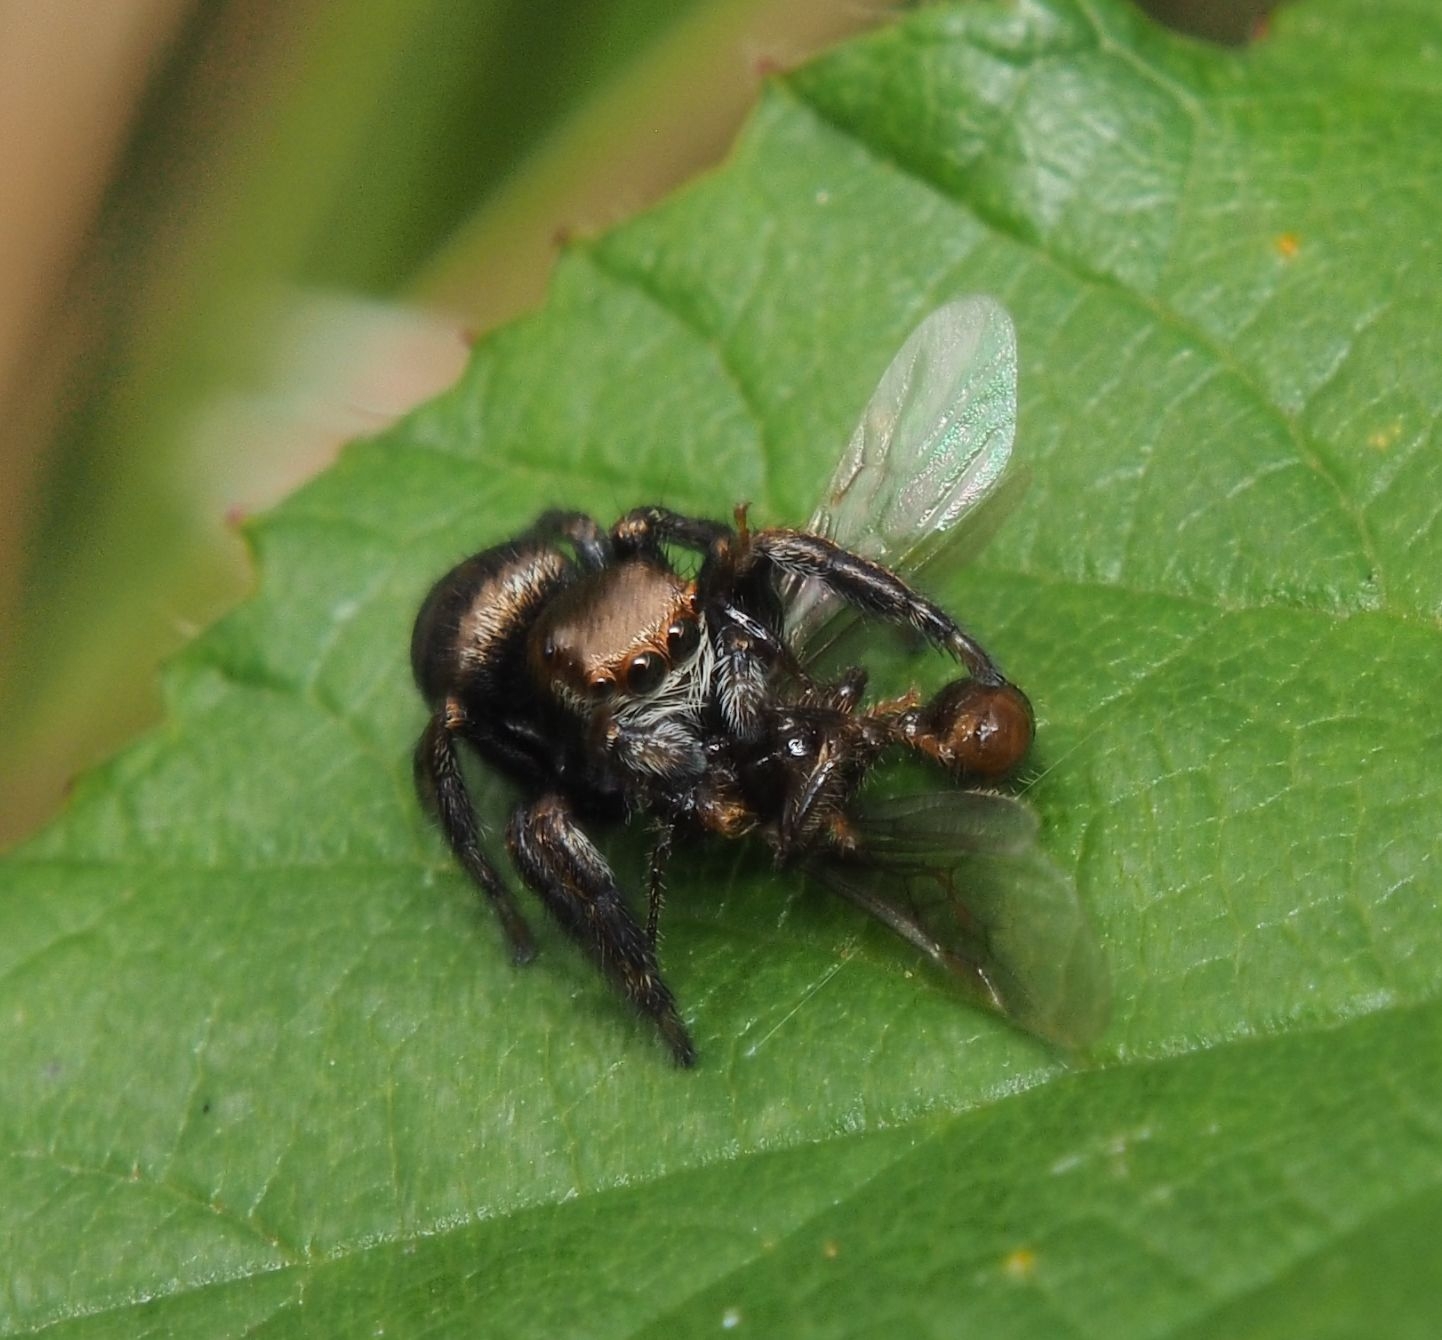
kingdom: Animalia
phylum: Arthropoda
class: Arachnida
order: Araneae
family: Salticidae
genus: Evarcha
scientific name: Evarcha arcuata
